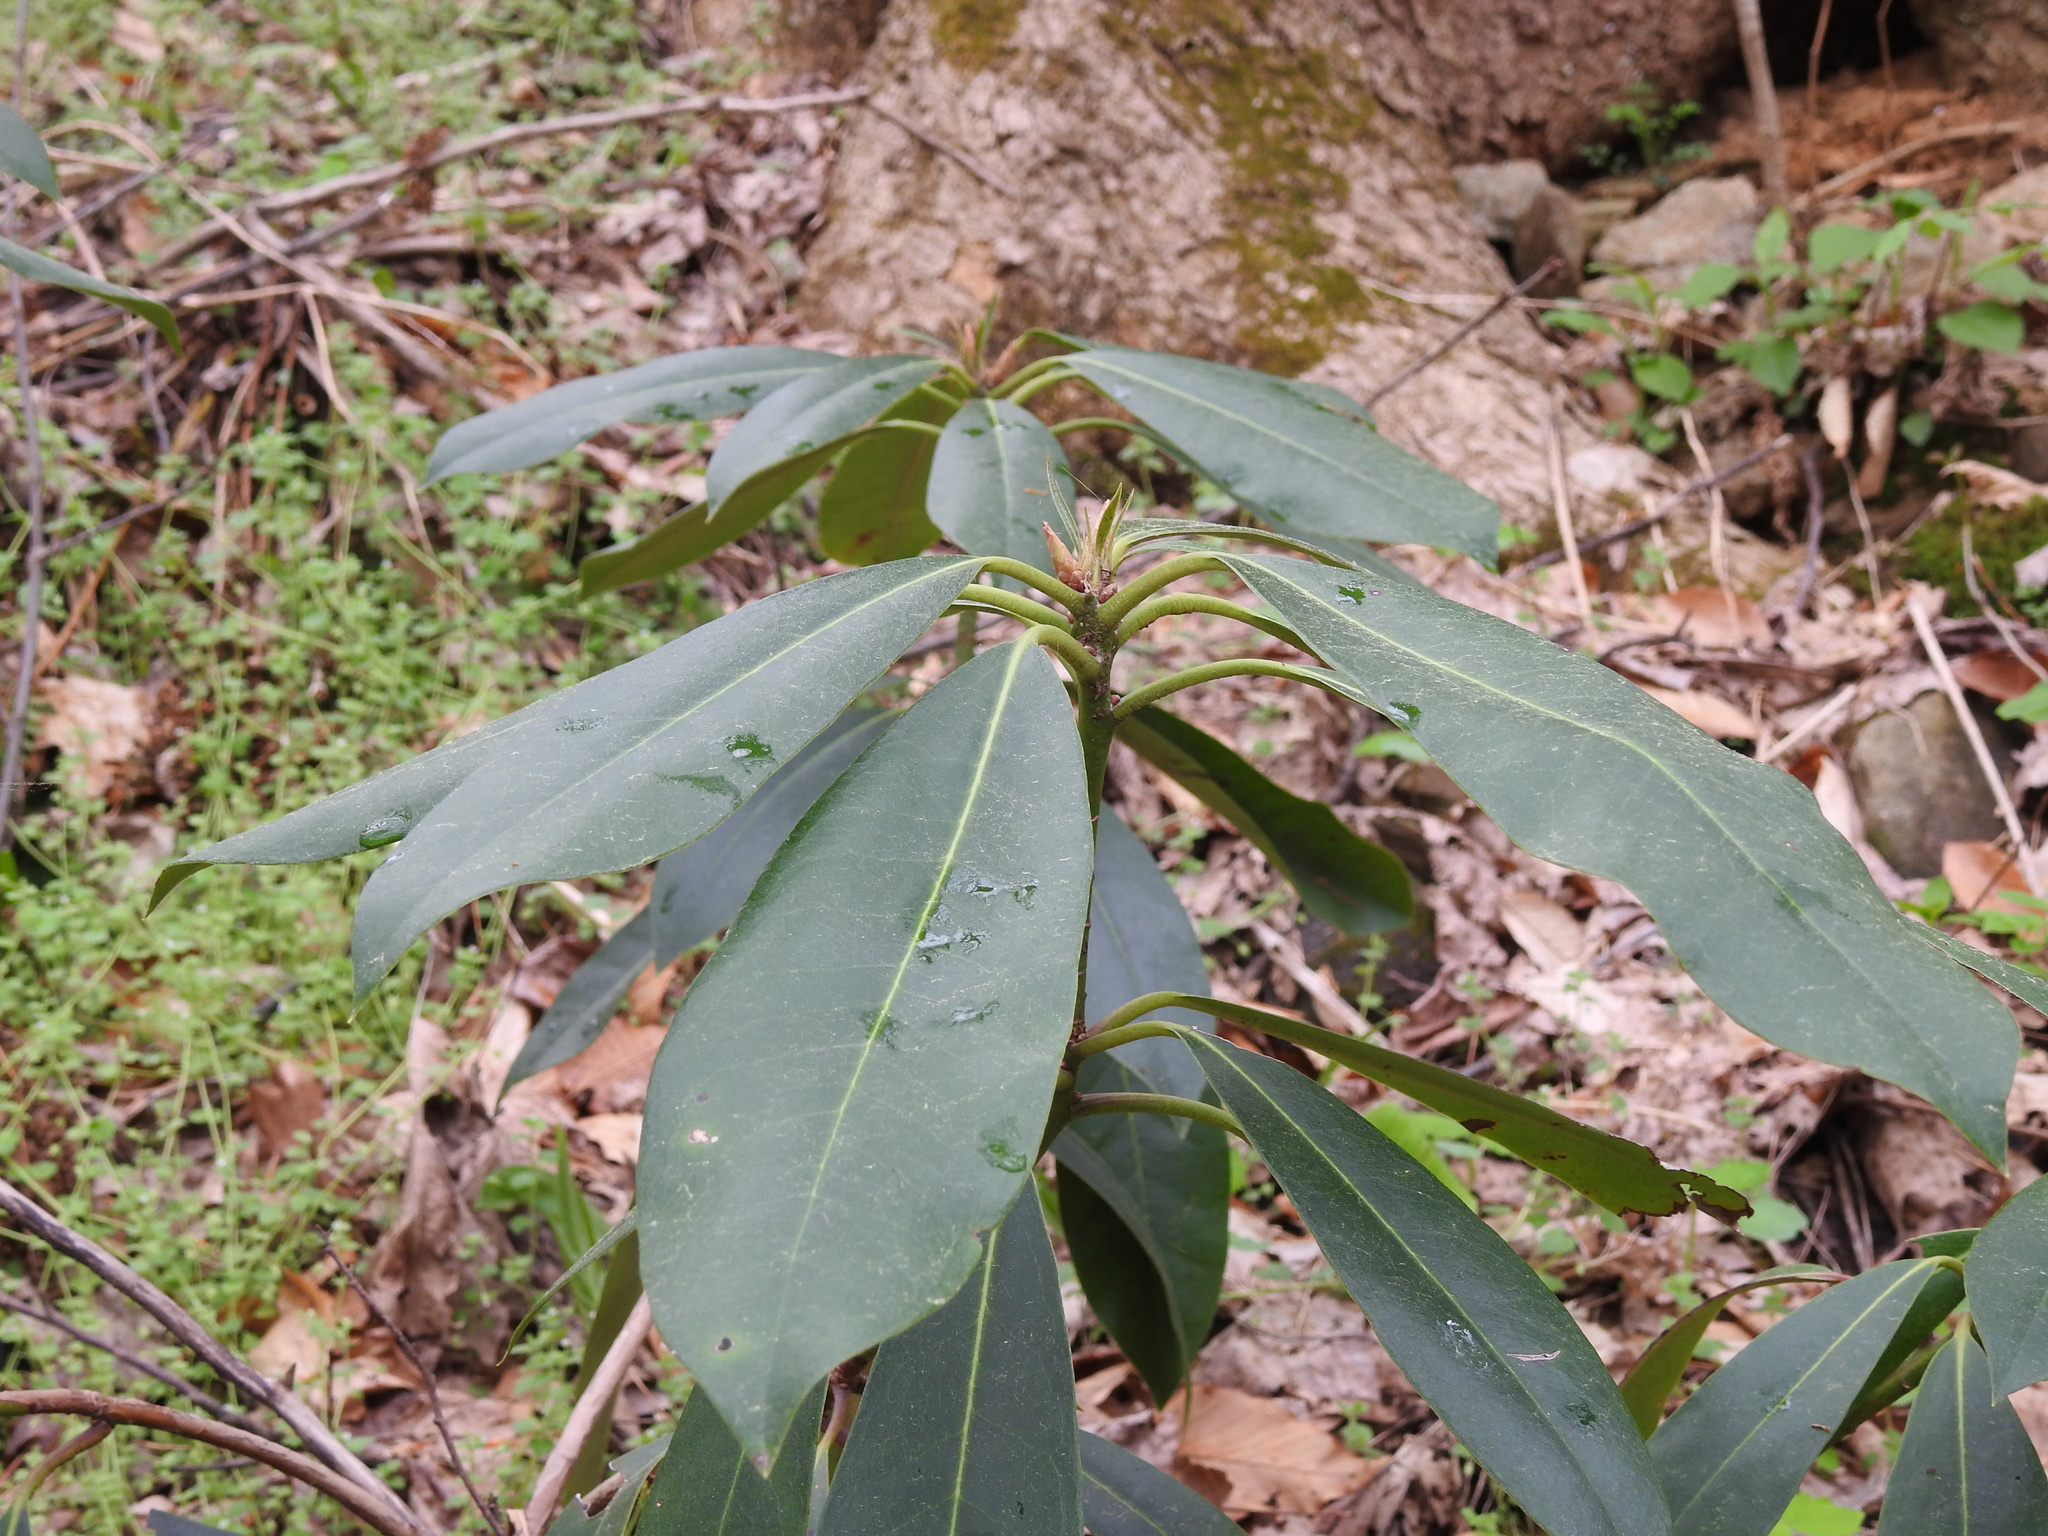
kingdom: Plantae
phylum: Tracheophyta
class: Magnoliopsida
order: Ericales
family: Ericaceae
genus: Rhododendron
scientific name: Rhododendron maximum
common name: Great rhododendron
